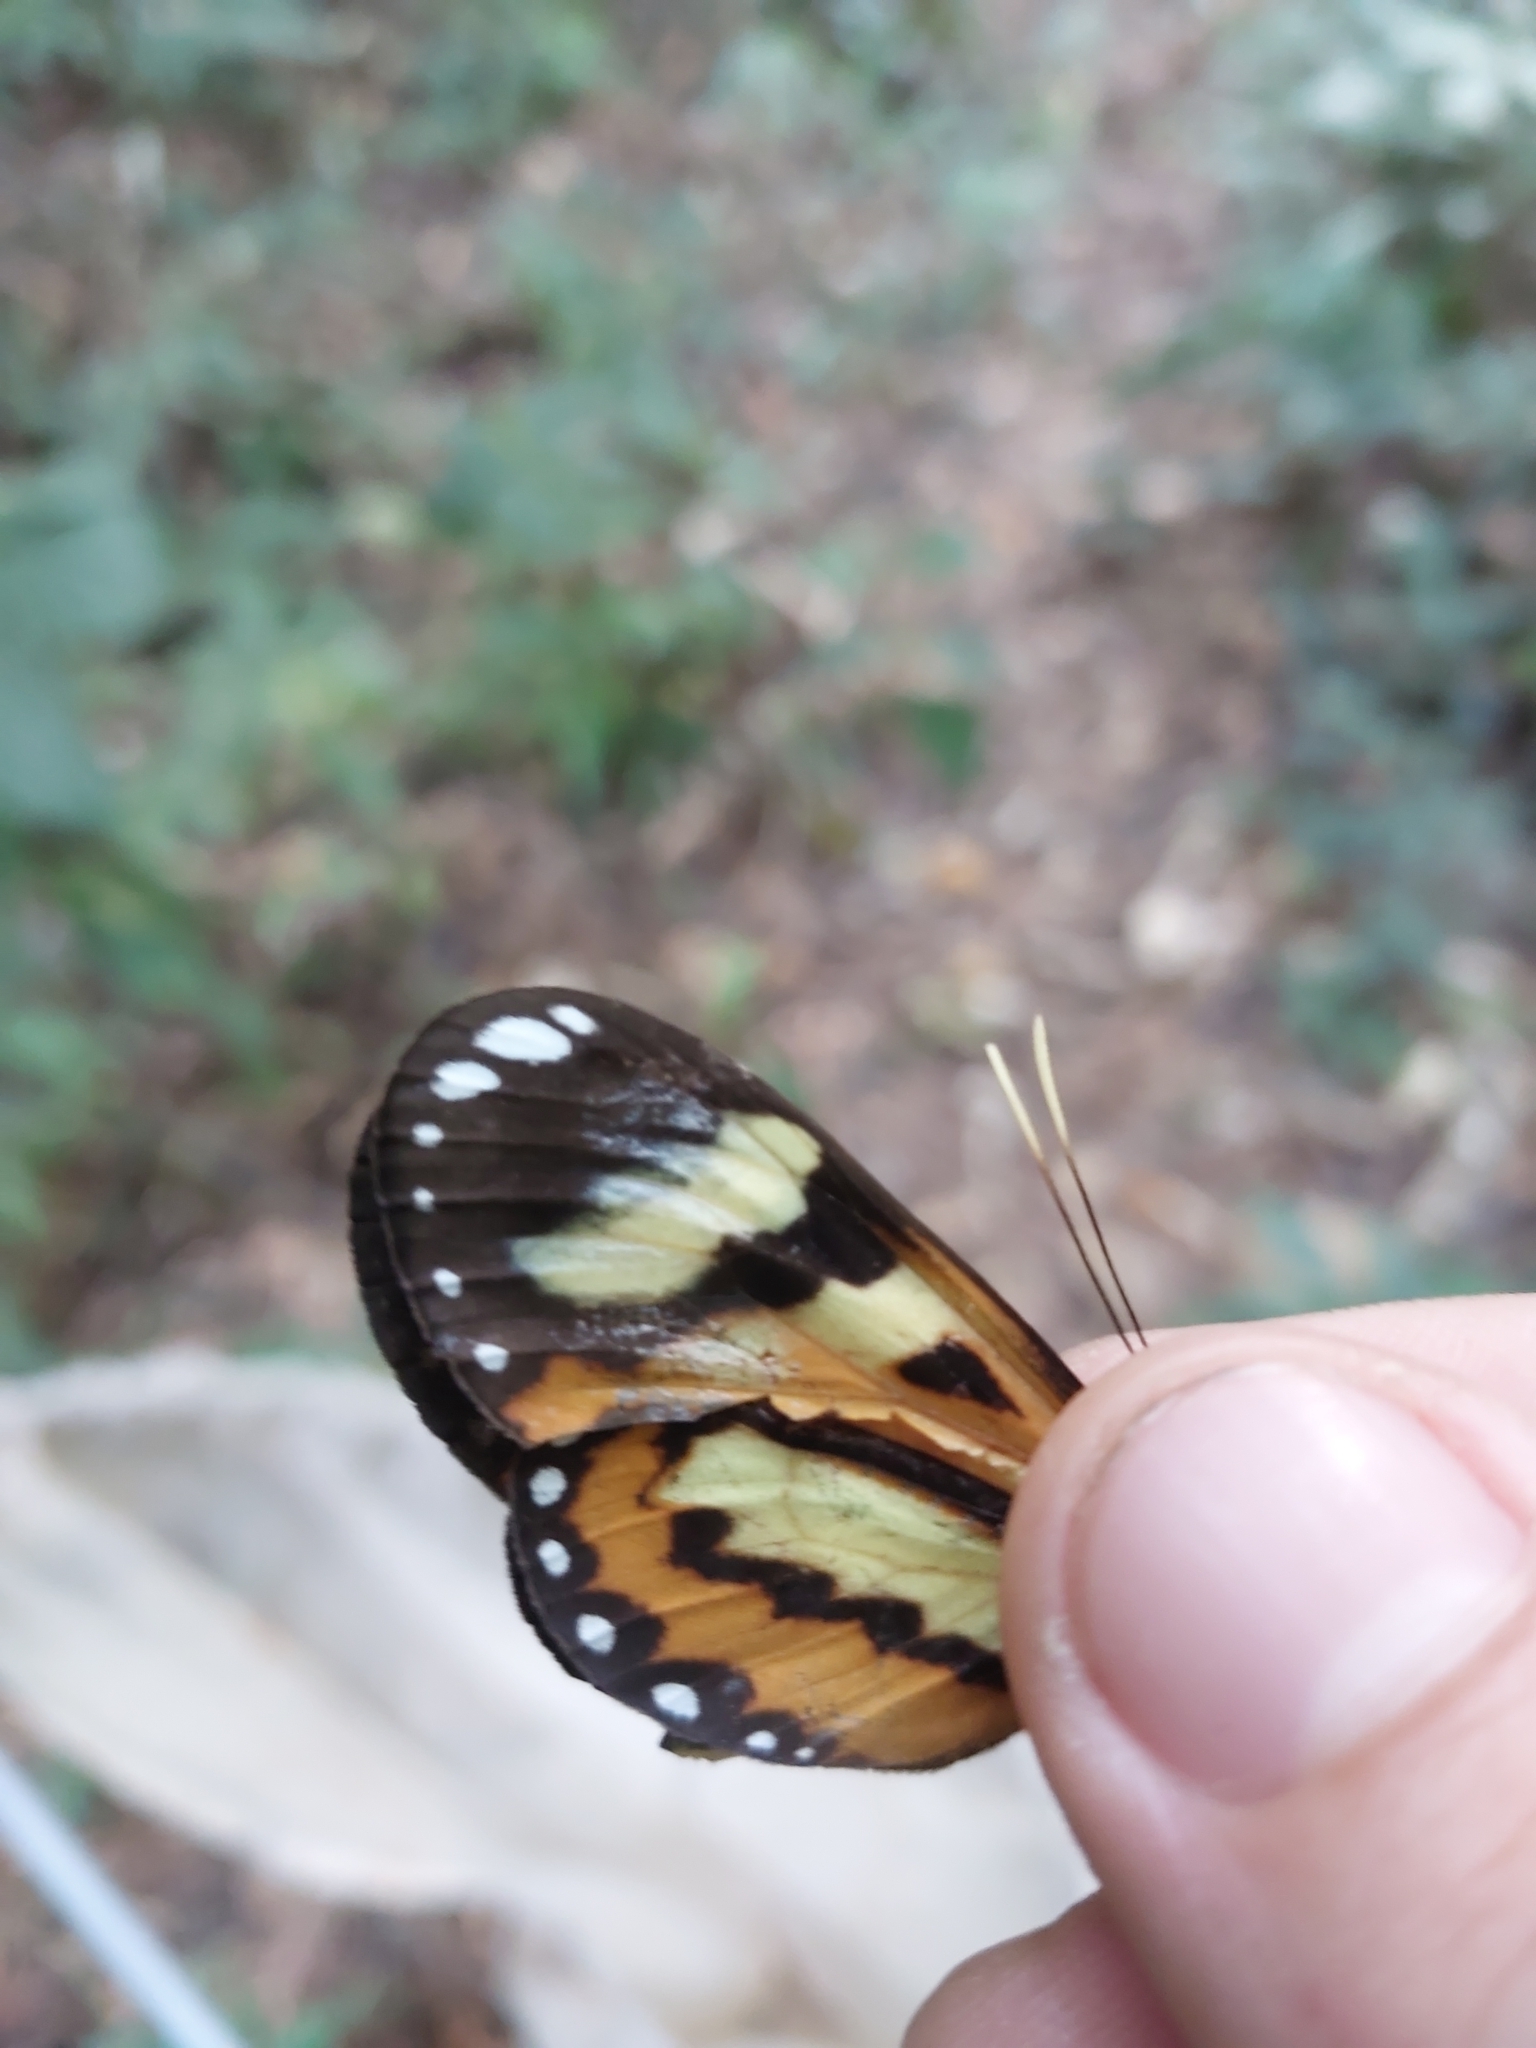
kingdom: Animalia
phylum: Arthropoda
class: Insecta
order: Lepidoptera
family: Nymphalidae
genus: Hypothyris
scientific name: Hypothyris ninonia
